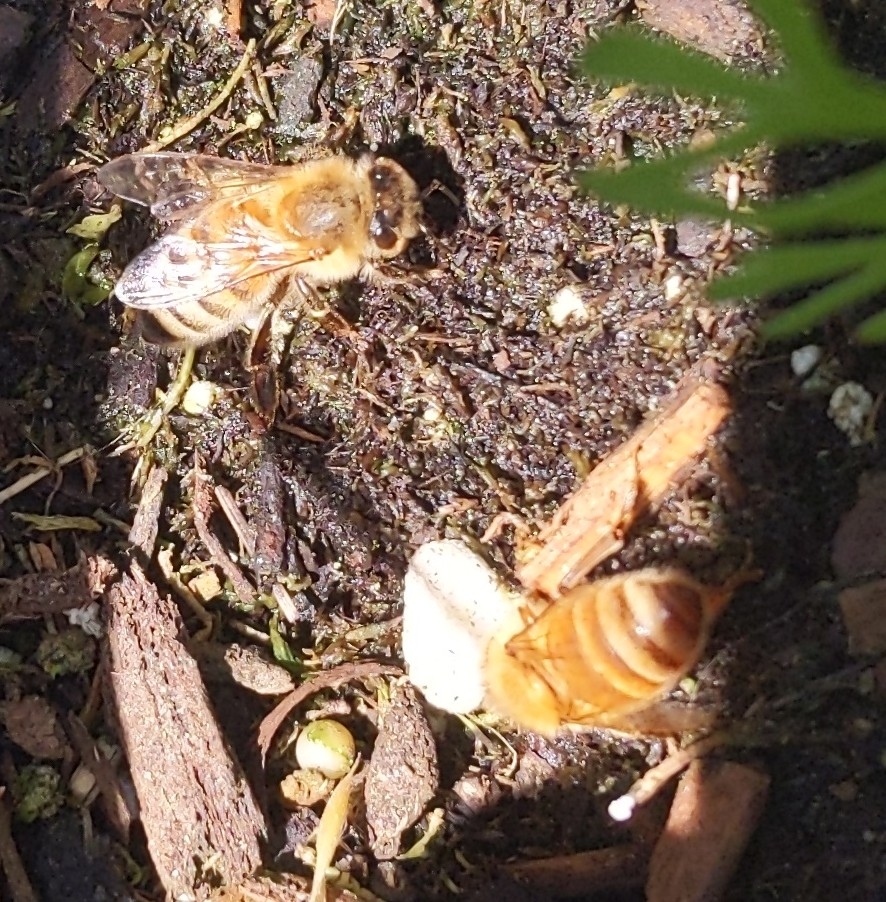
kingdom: Animalia
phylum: Arthropoda
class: Insecta
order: Hymenoptera
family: Apidae
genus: Apis
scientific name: Apis mellifera
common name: Honey bee
